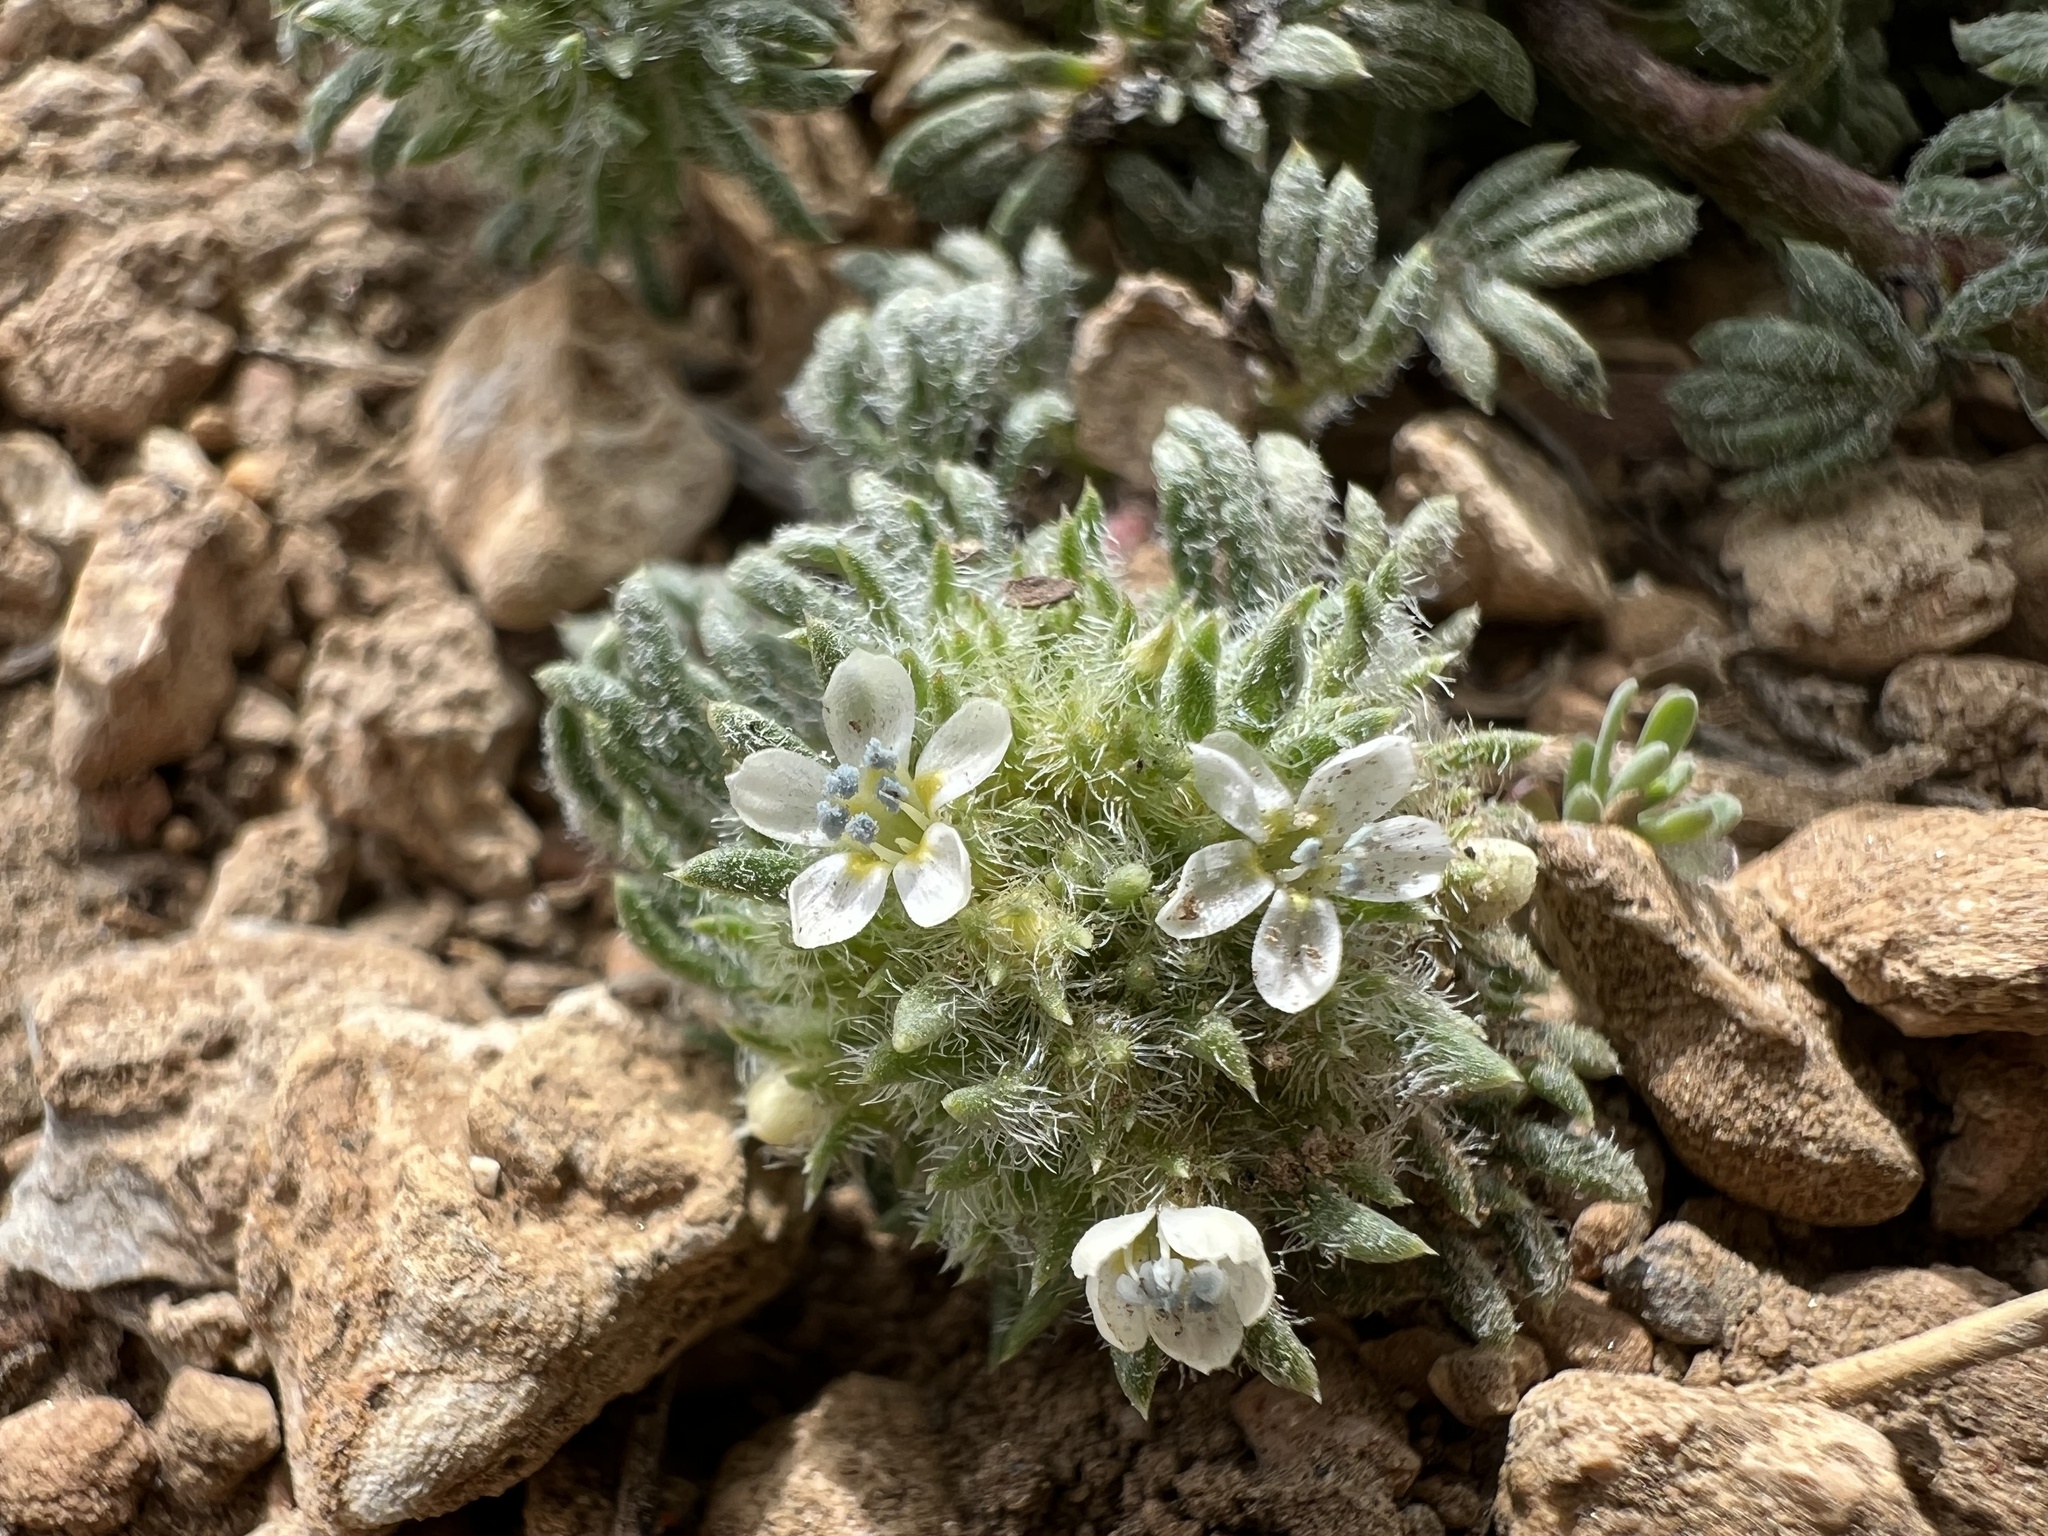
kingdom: Plantae
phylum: Tracheophyta
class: Magnoliopsida
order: Ericales
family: Polemoniaceae
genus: Ipomopsis
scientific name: Ipomopsis congesta
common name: Ball-head gilia
